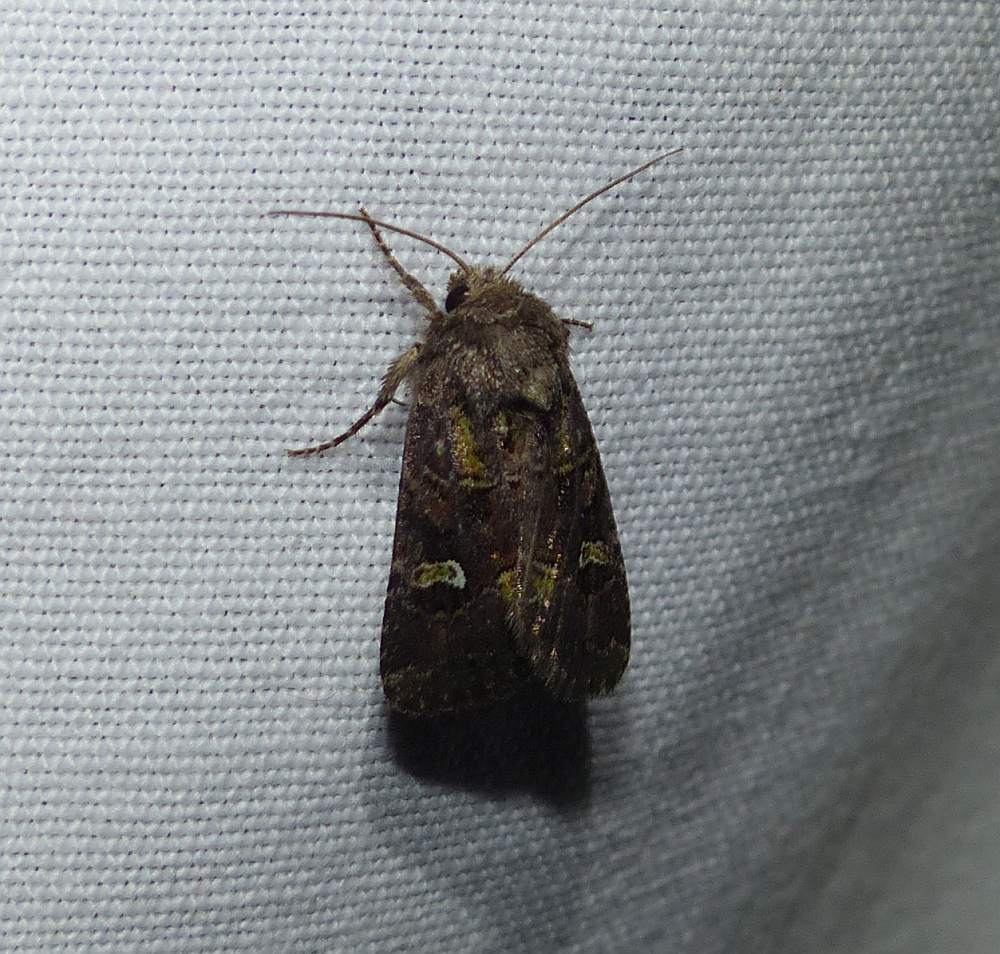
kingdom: Animalia
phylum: Arthropoda
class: Insecta
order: Lepidoptera
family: Noctuidae
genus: Lacinipolia
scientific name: Lacinipolia renigera
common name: Kidney-spotted minor
